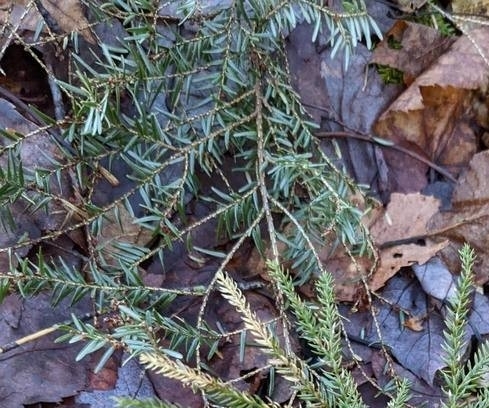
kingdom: Plantae
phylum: Tracheophyta
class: Pinopsida
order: Pinales
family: Pinaceae
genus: Tsuga
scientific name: Tsuga canadensis
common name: Eastern hemlock
